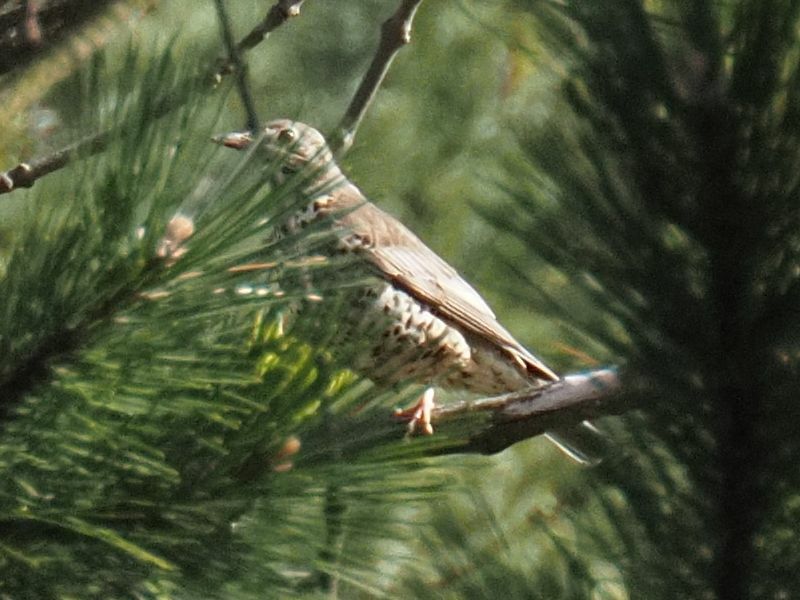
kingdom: Animalia
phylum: Chordata
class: Aves
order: Passeriformes
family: Turdidae
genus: Turdus
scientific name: Turdus viscivorus
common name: Mistle thrush
